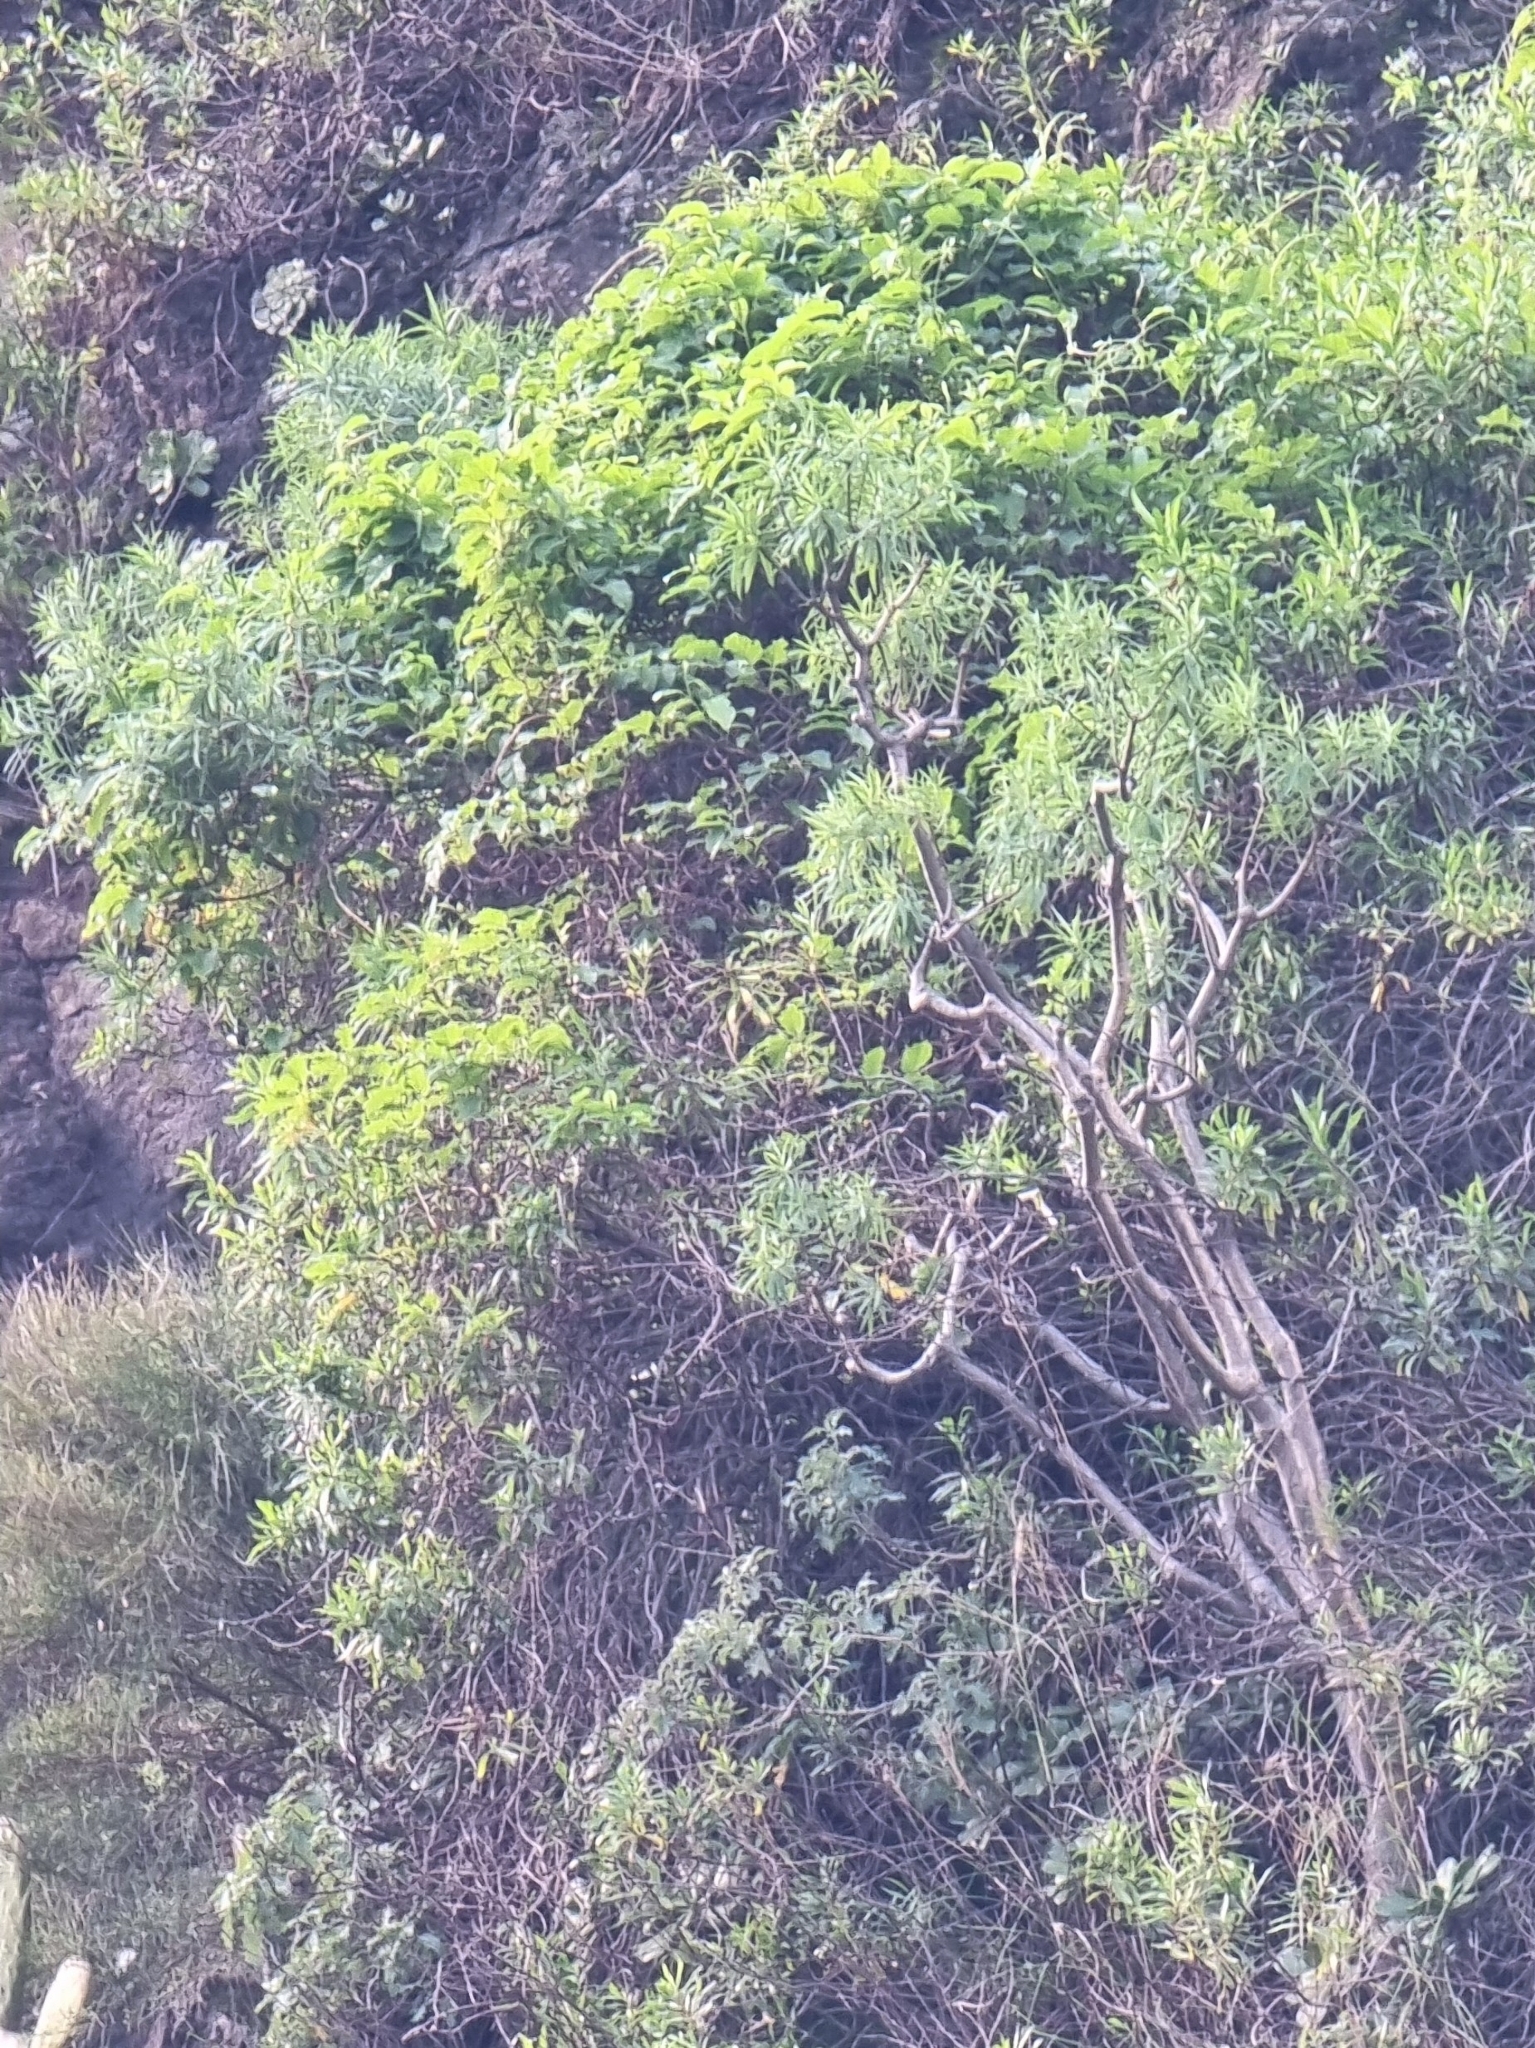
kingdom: Plantae
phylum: Tracheophyta
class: Magnoliopsida
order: Malpighiales
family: Euphorbiaceae
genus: Euphorbia
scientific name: Euphorbia piscatoria
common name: Fish-stunning spurge
